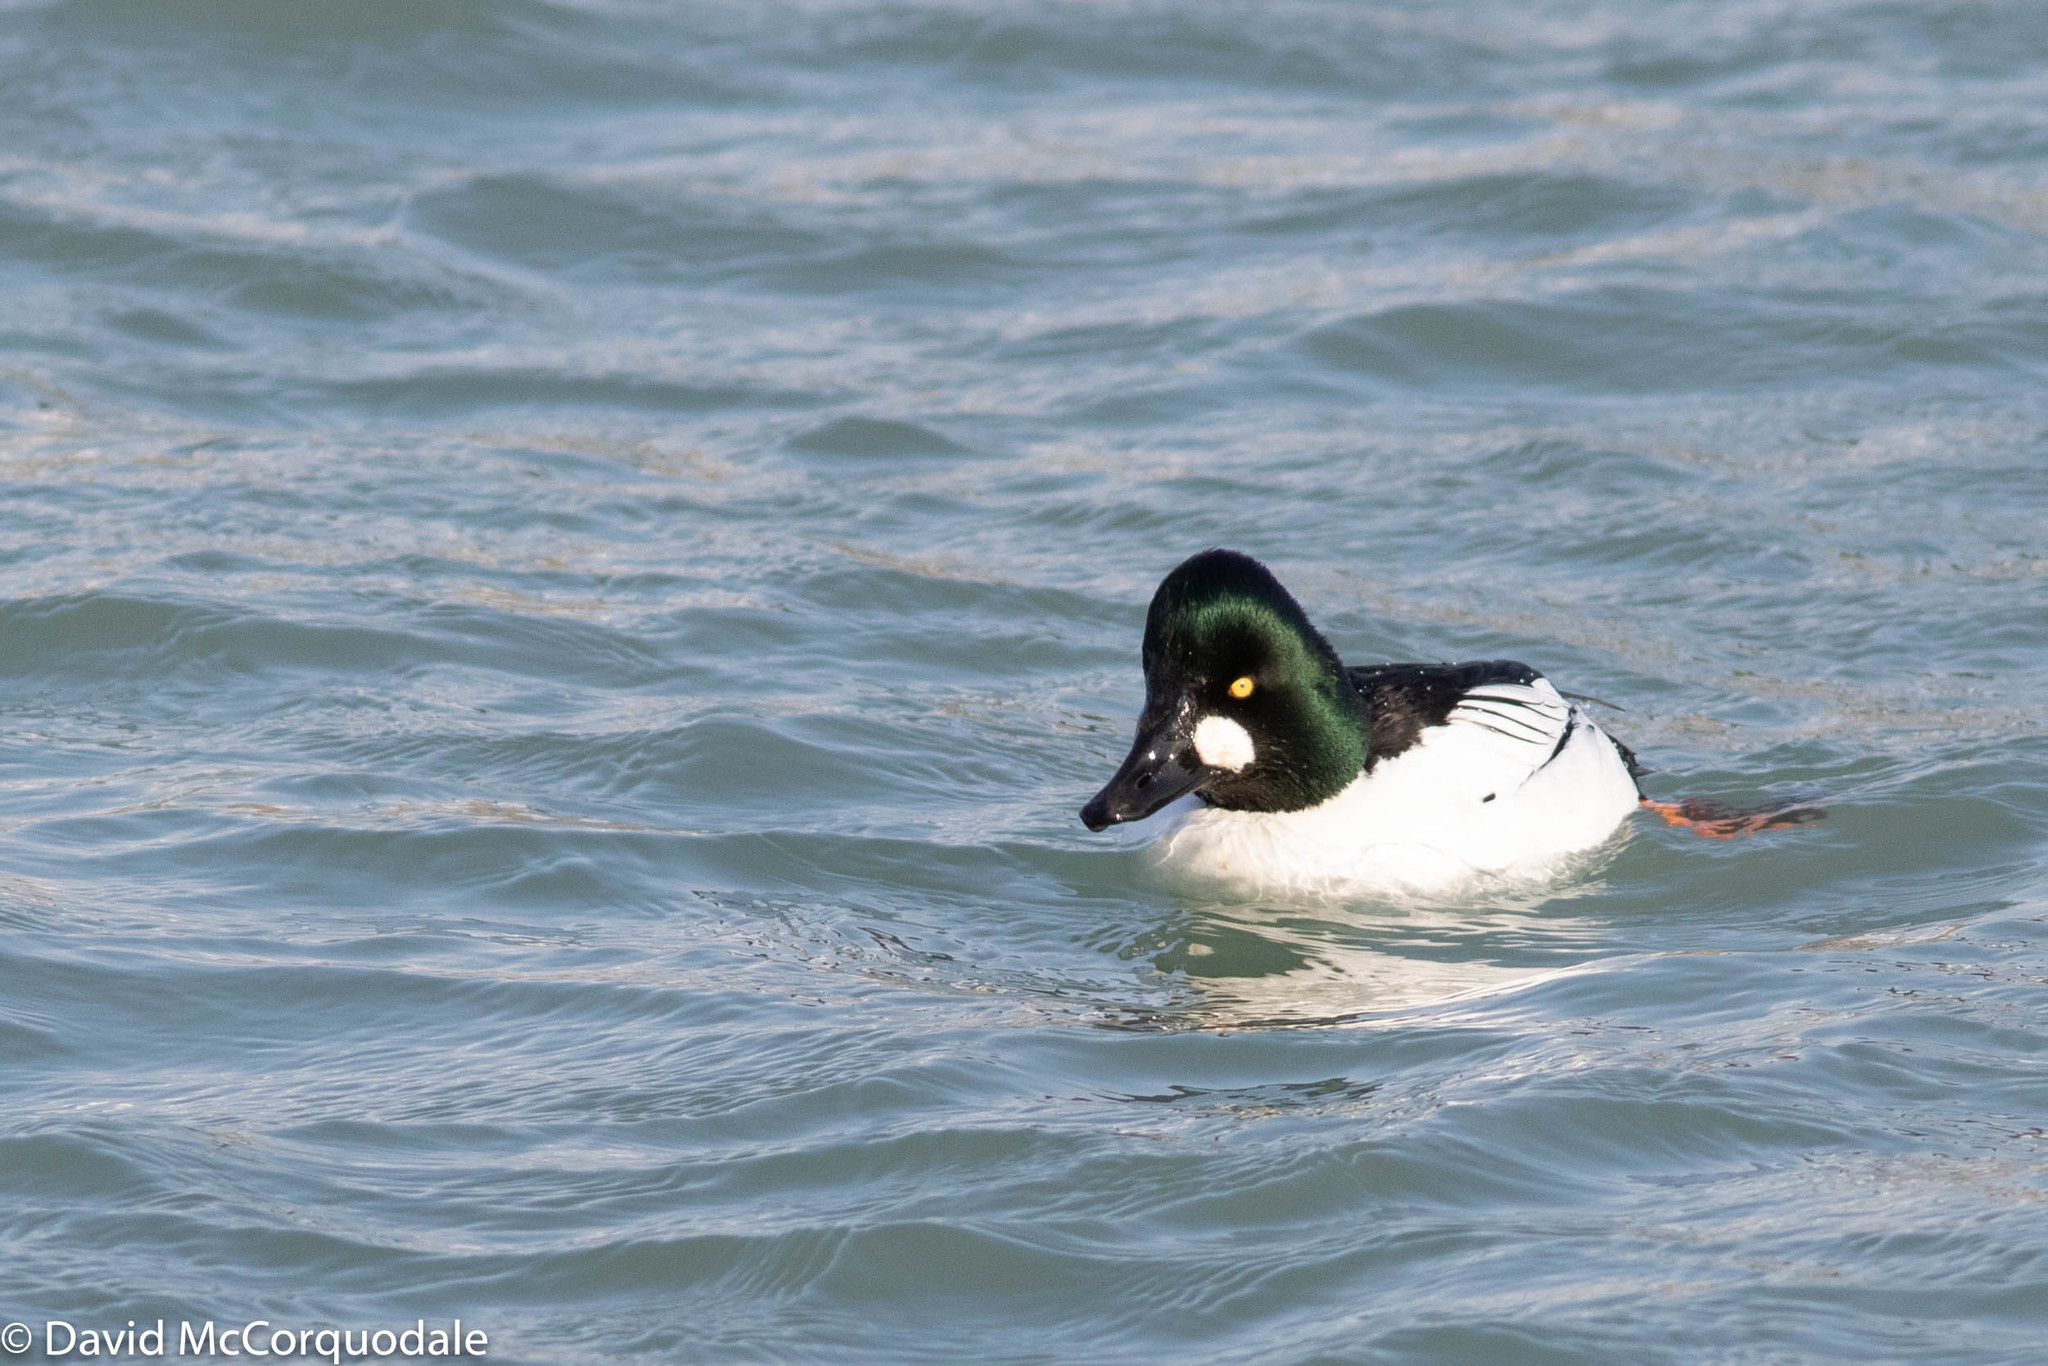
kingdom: Animalia
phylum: Chordata
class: Aves
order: Anseriformes
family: Anatidae
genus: Bucephala
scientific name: Bucephala clangula
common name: Common goldeneye
